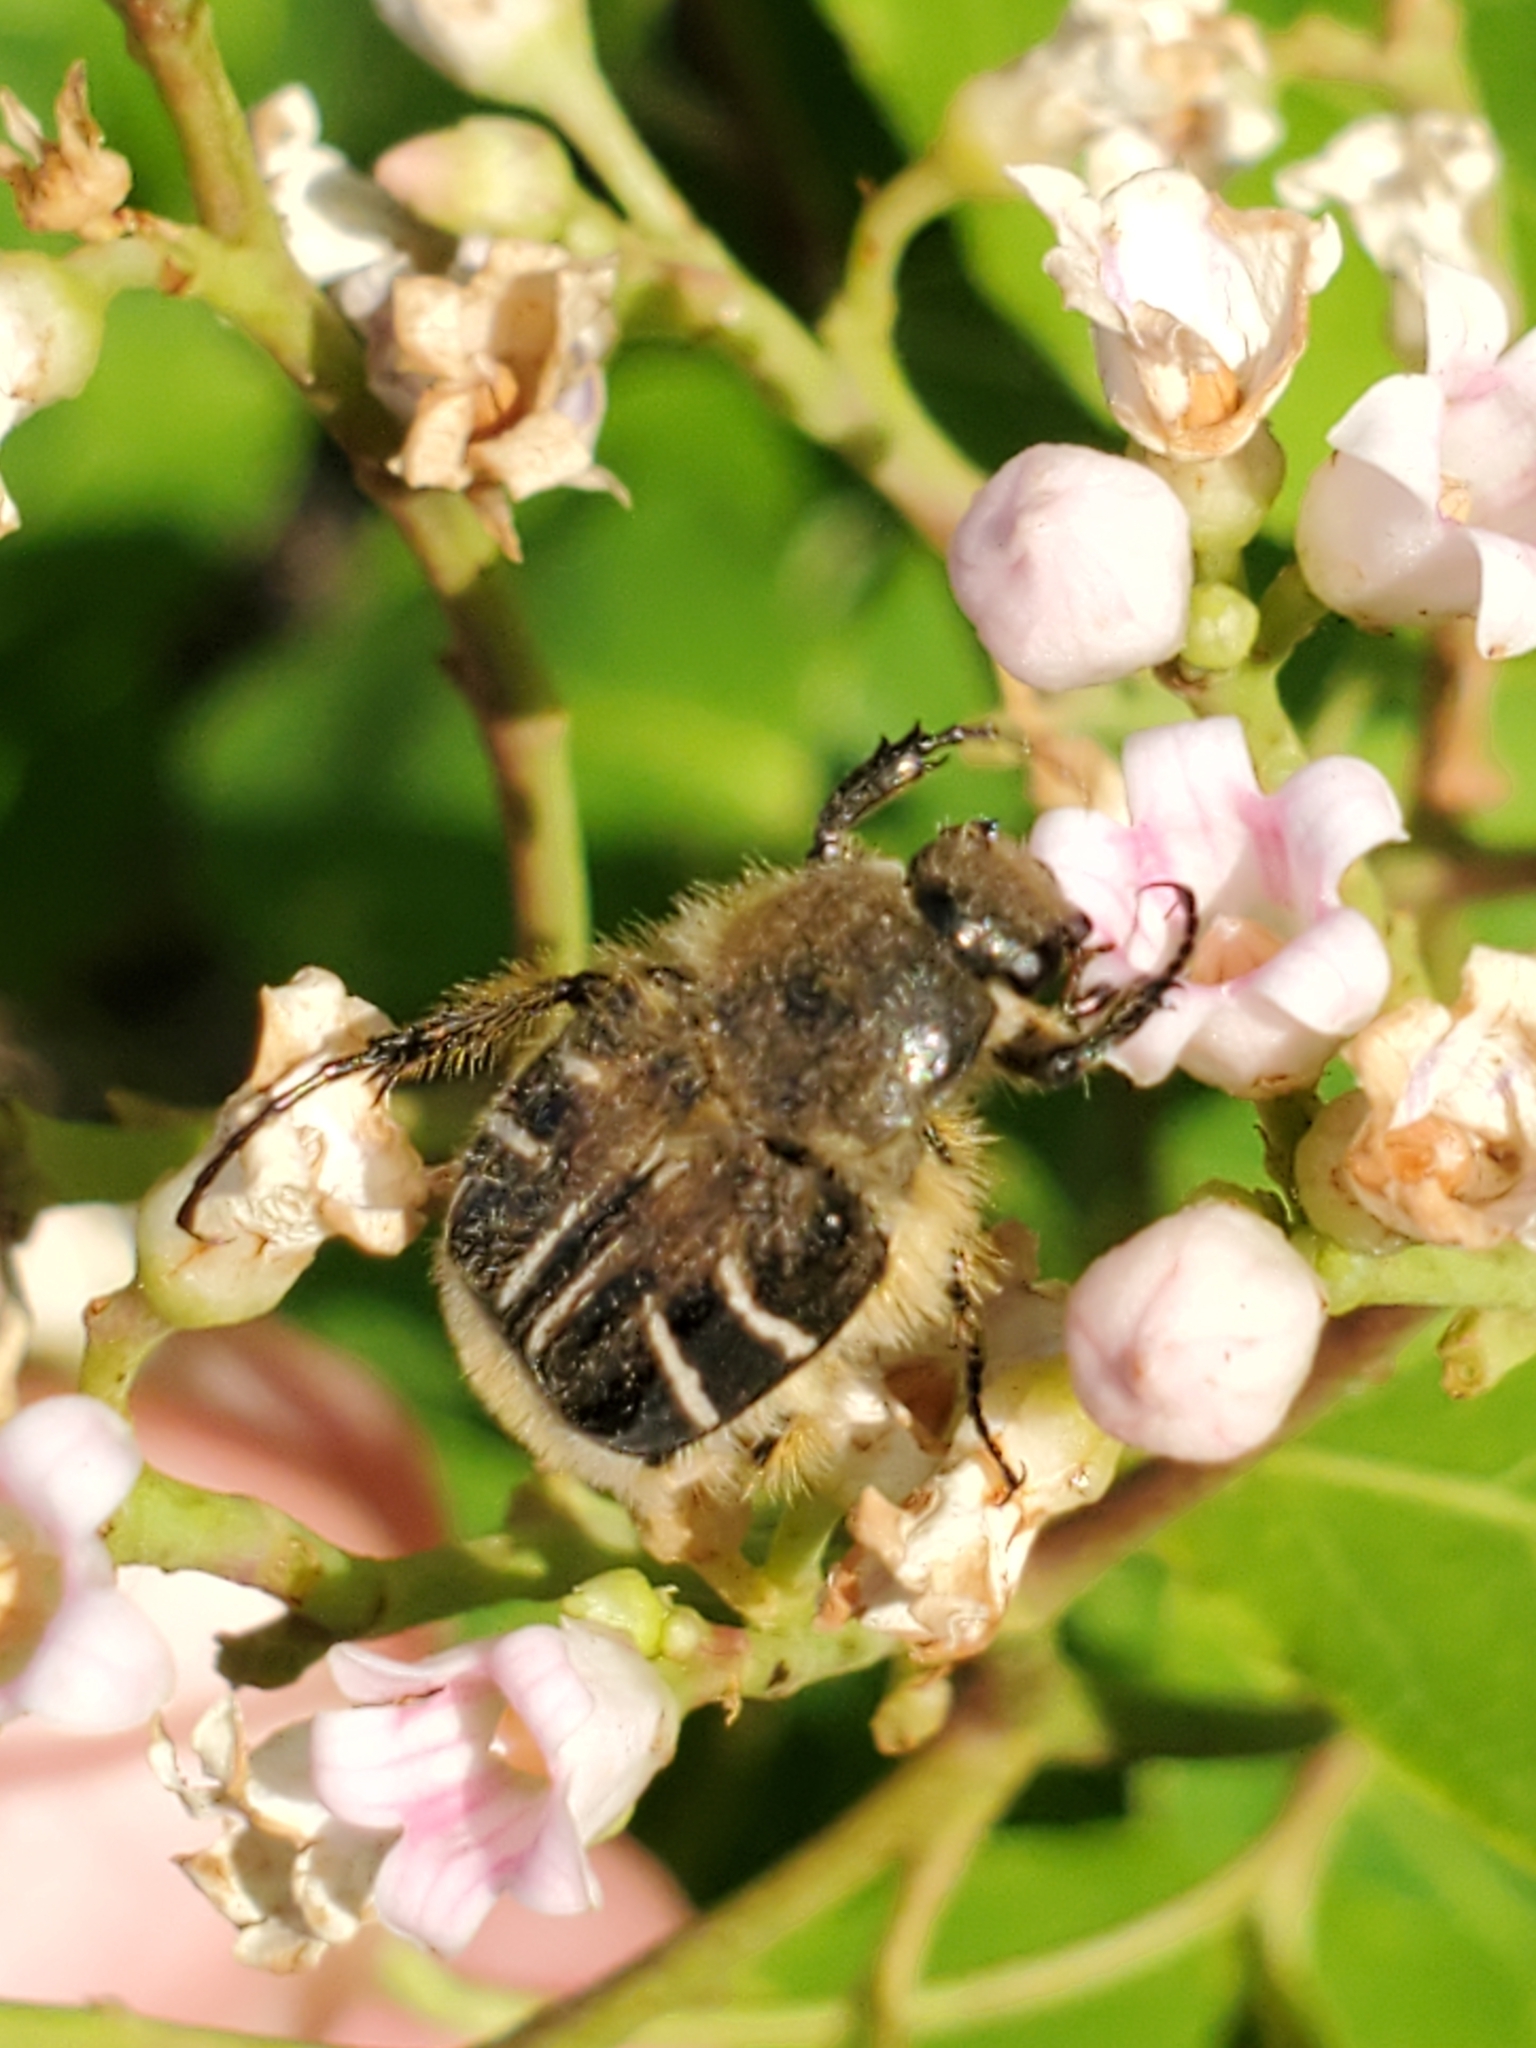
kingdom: Animalia
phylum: Arthropoda
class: Insecta
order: Coleoptera
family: Scarabaeidae
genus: Trichiotinus
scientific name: Trichiotinus assimilis
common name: Bee-mimic beetle
